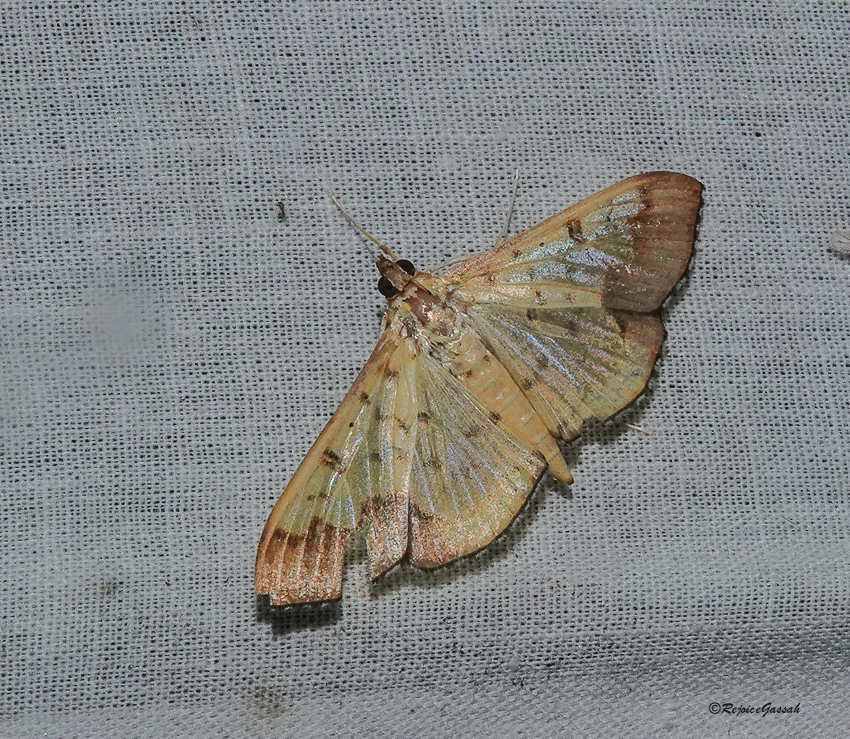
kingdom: Animalia
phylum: Arthropoda
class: Insecta
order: Lepidoptera
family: Crambidae
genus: Meroctena
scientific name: Meroctena tullalis
